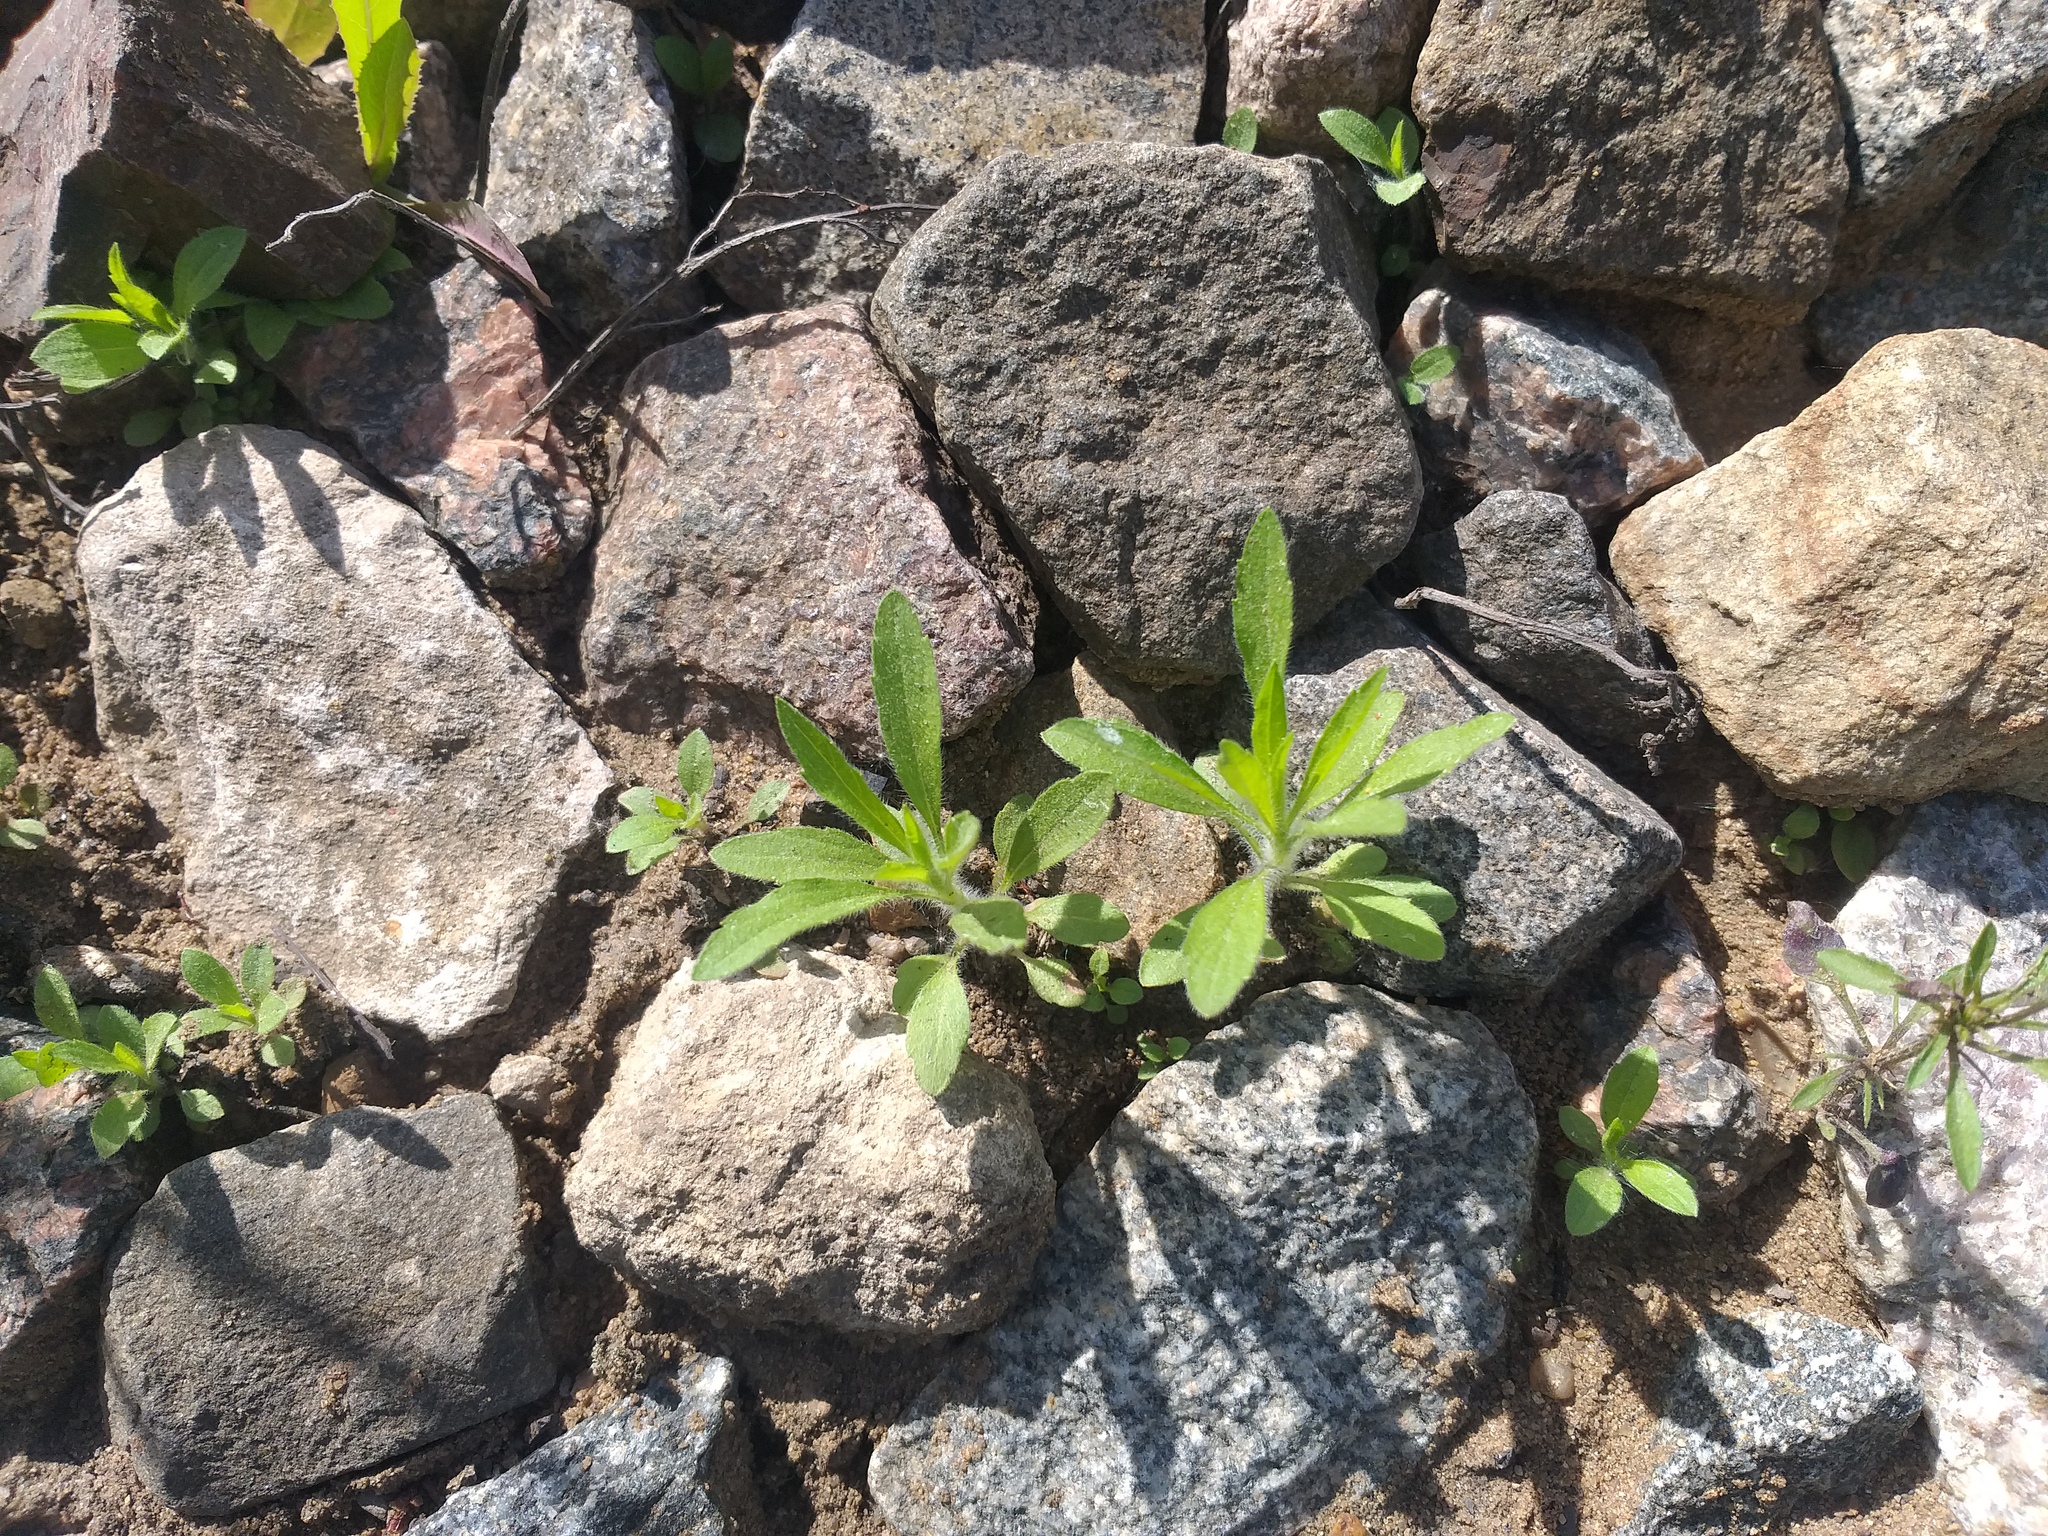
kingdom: Plantae
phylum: Tracheophyta
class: Magnoliopsida
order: Asterales
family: Asteraceae
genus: Erigeron
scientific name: Erigeron canadensis
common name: Canadian fleabane
